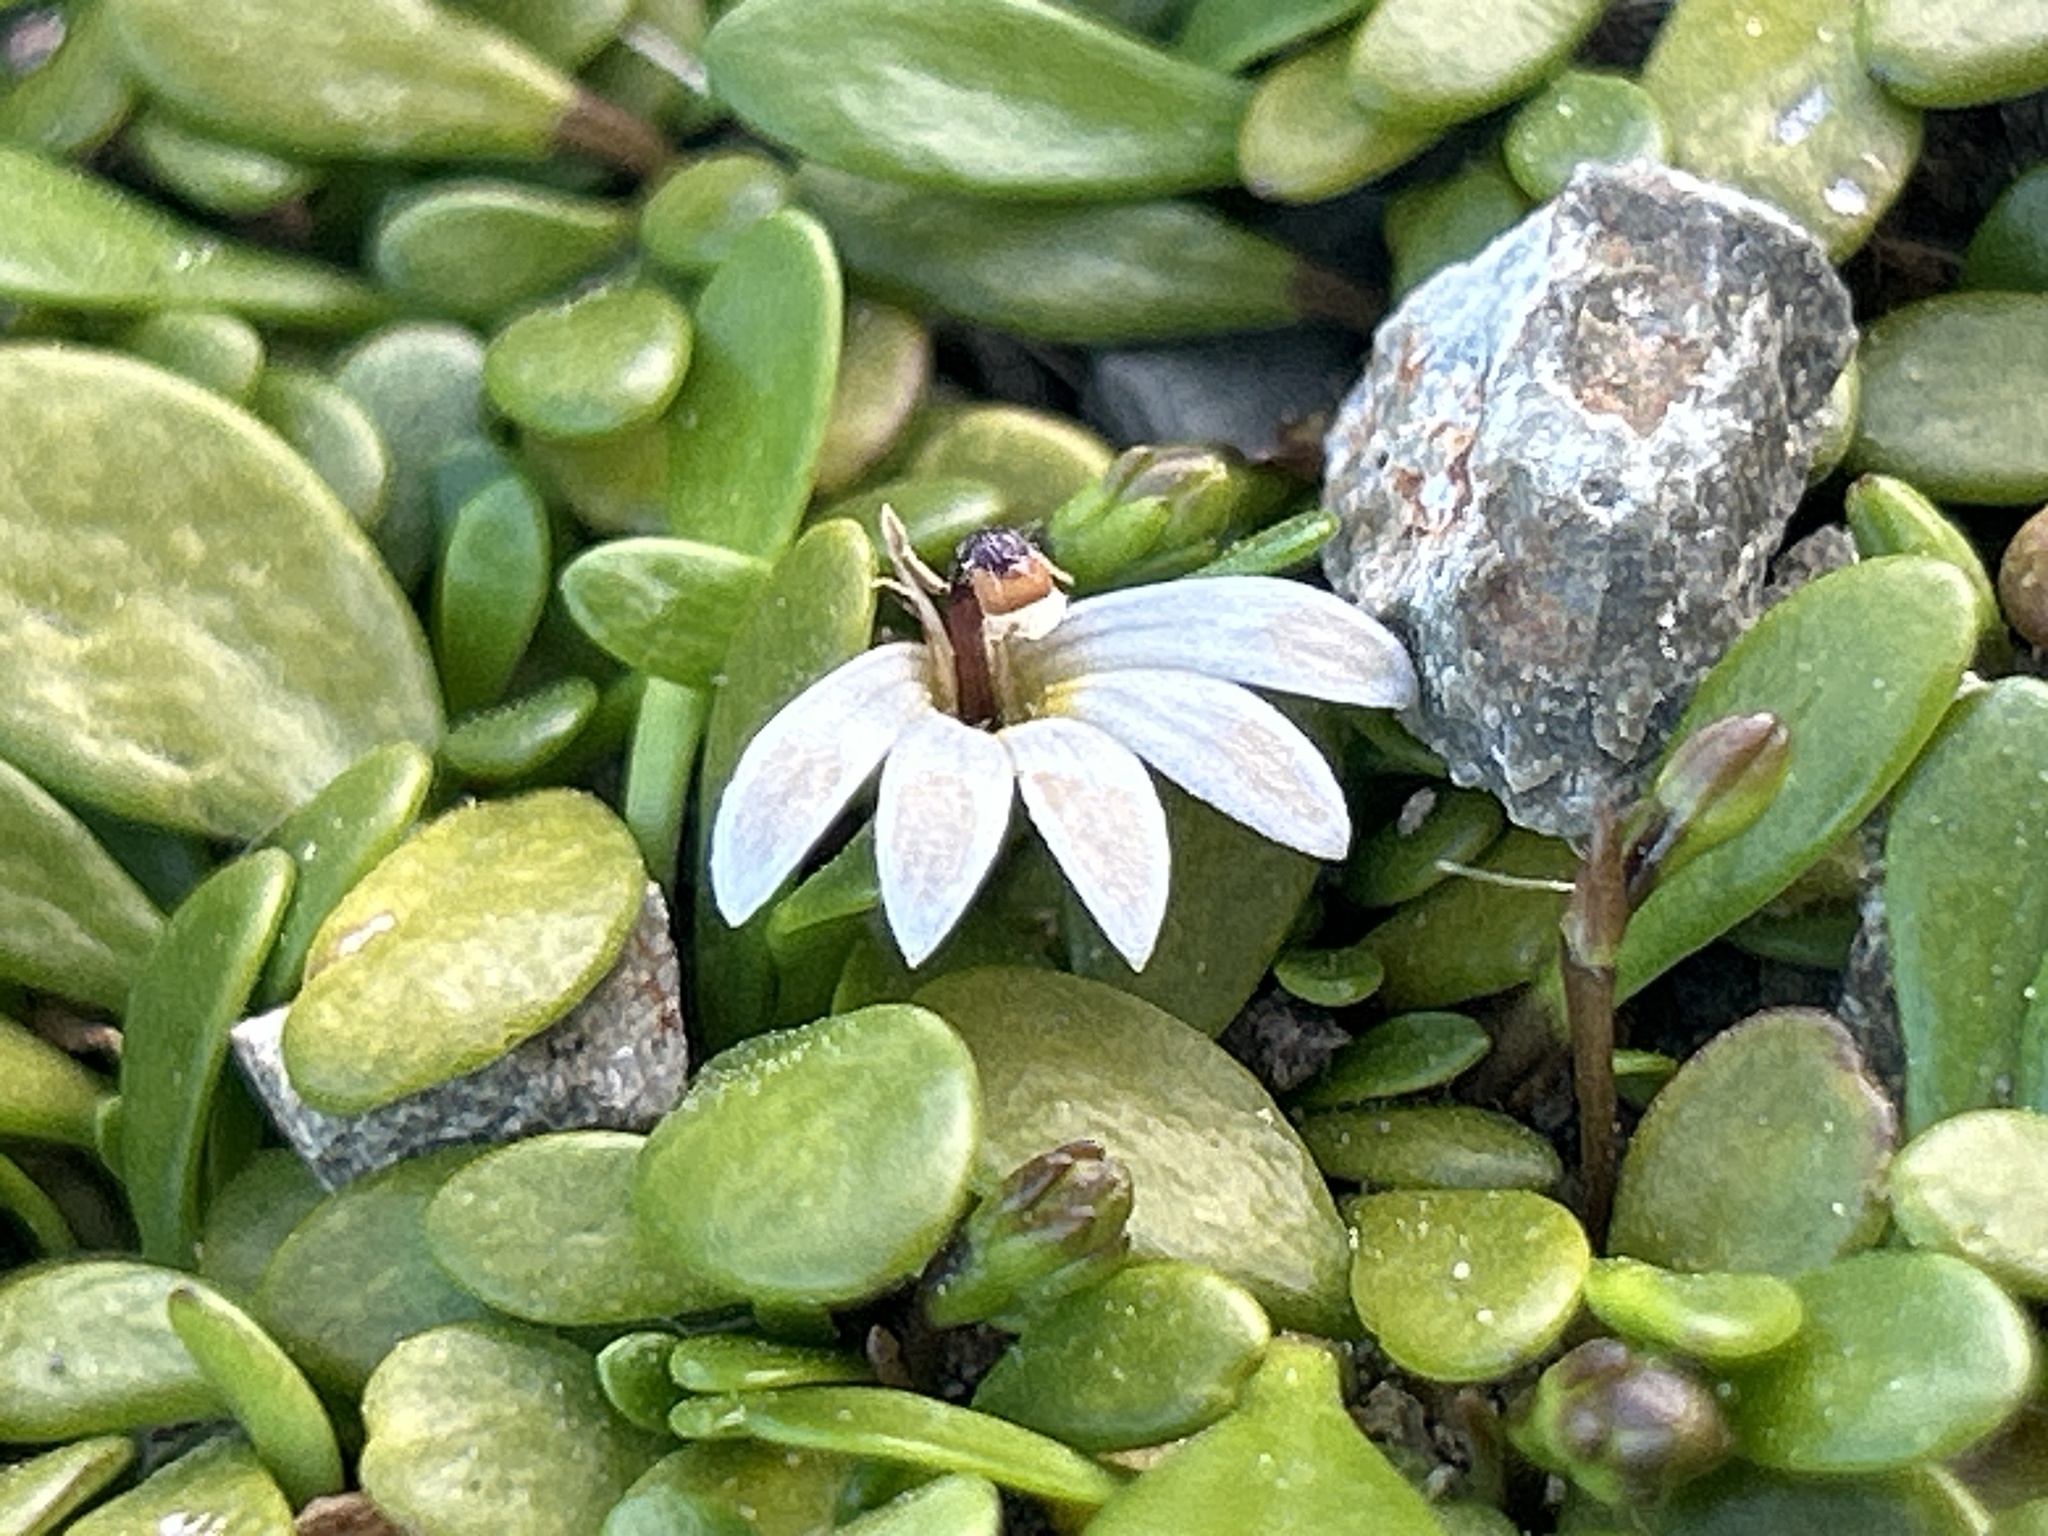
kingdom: Plantae
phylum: Tracheophyta
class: Magnoliopsida
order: Asterales
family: Goodeniaceae
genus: Goodenia
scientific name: Goodenia radicans
